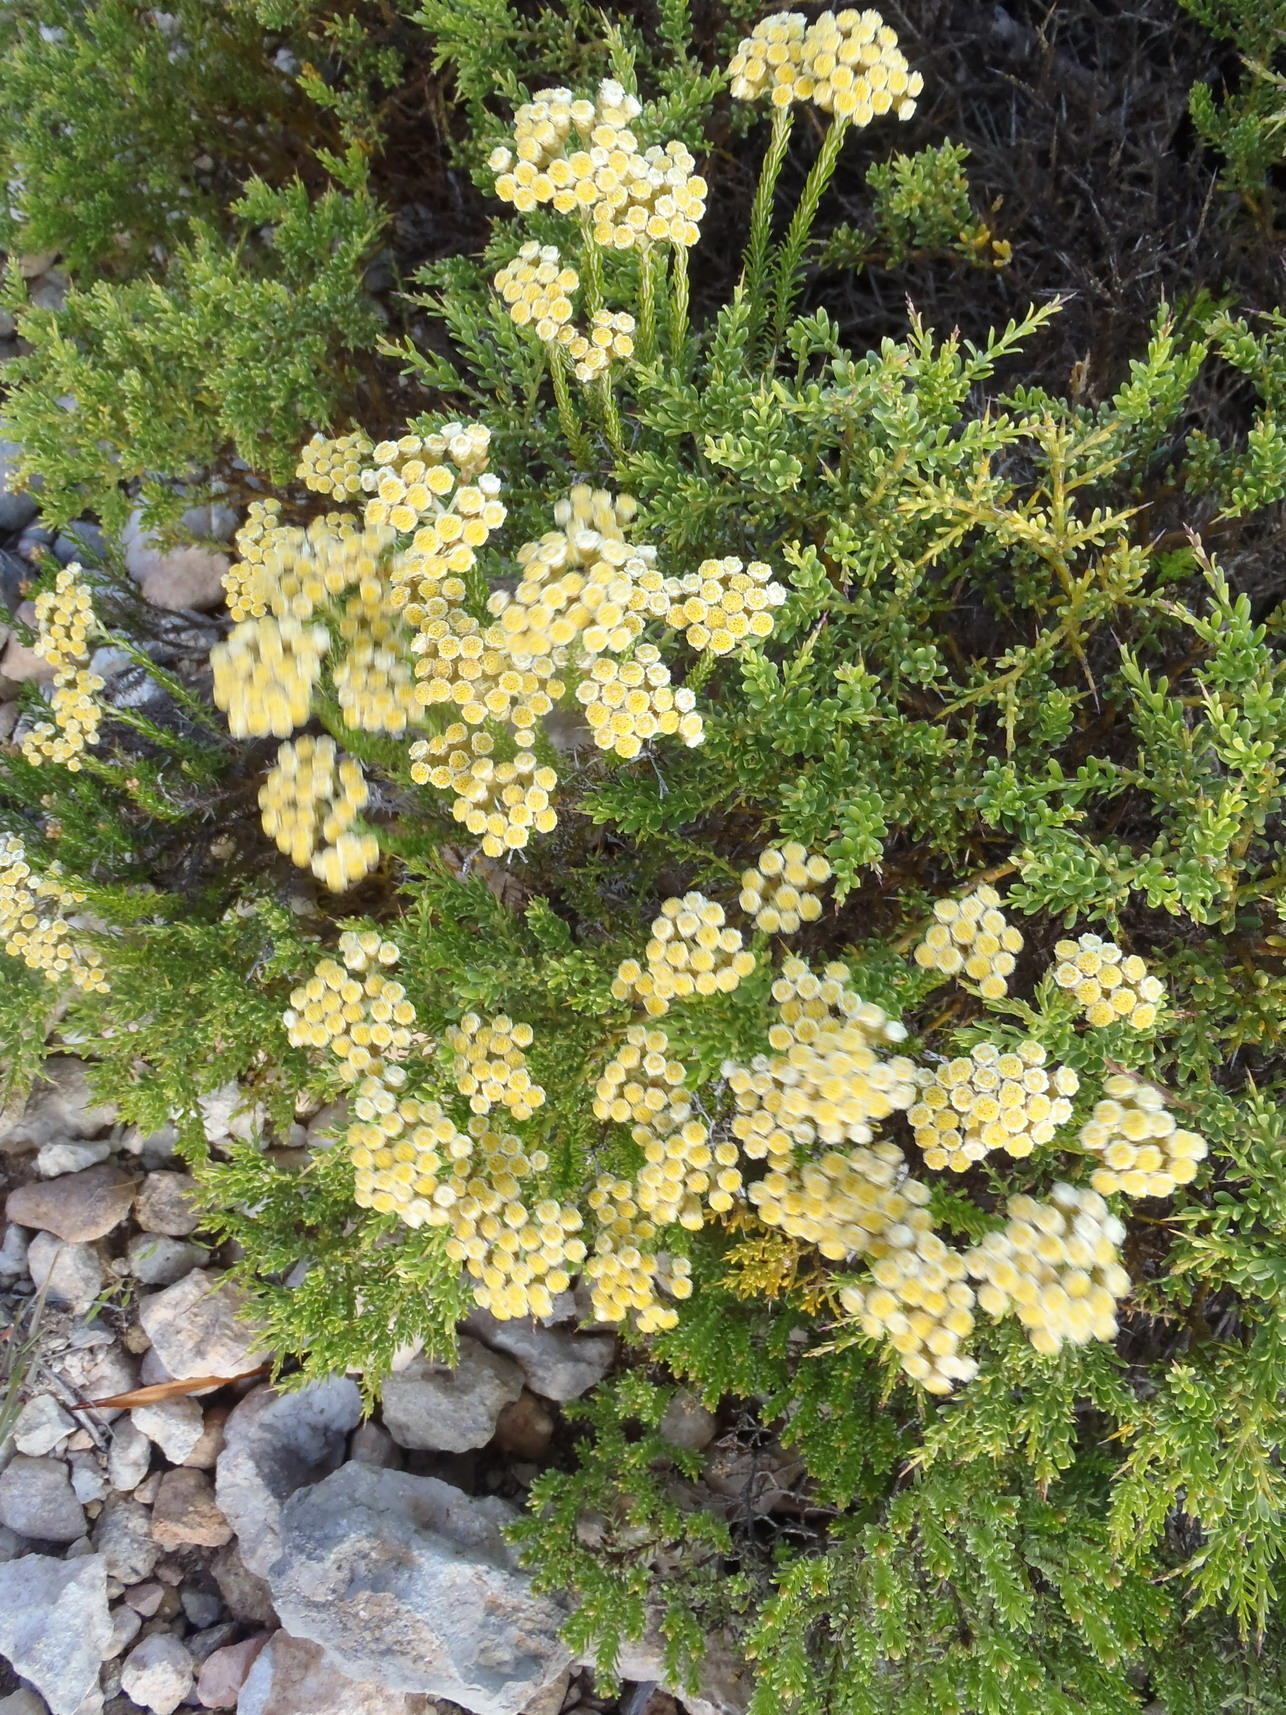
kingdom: Plantae
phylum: Tracheophyta
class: Magnoliopsida
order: Asterales
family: Asteraceae
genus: Helichrysum
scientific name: Helichrysum teretifolium
